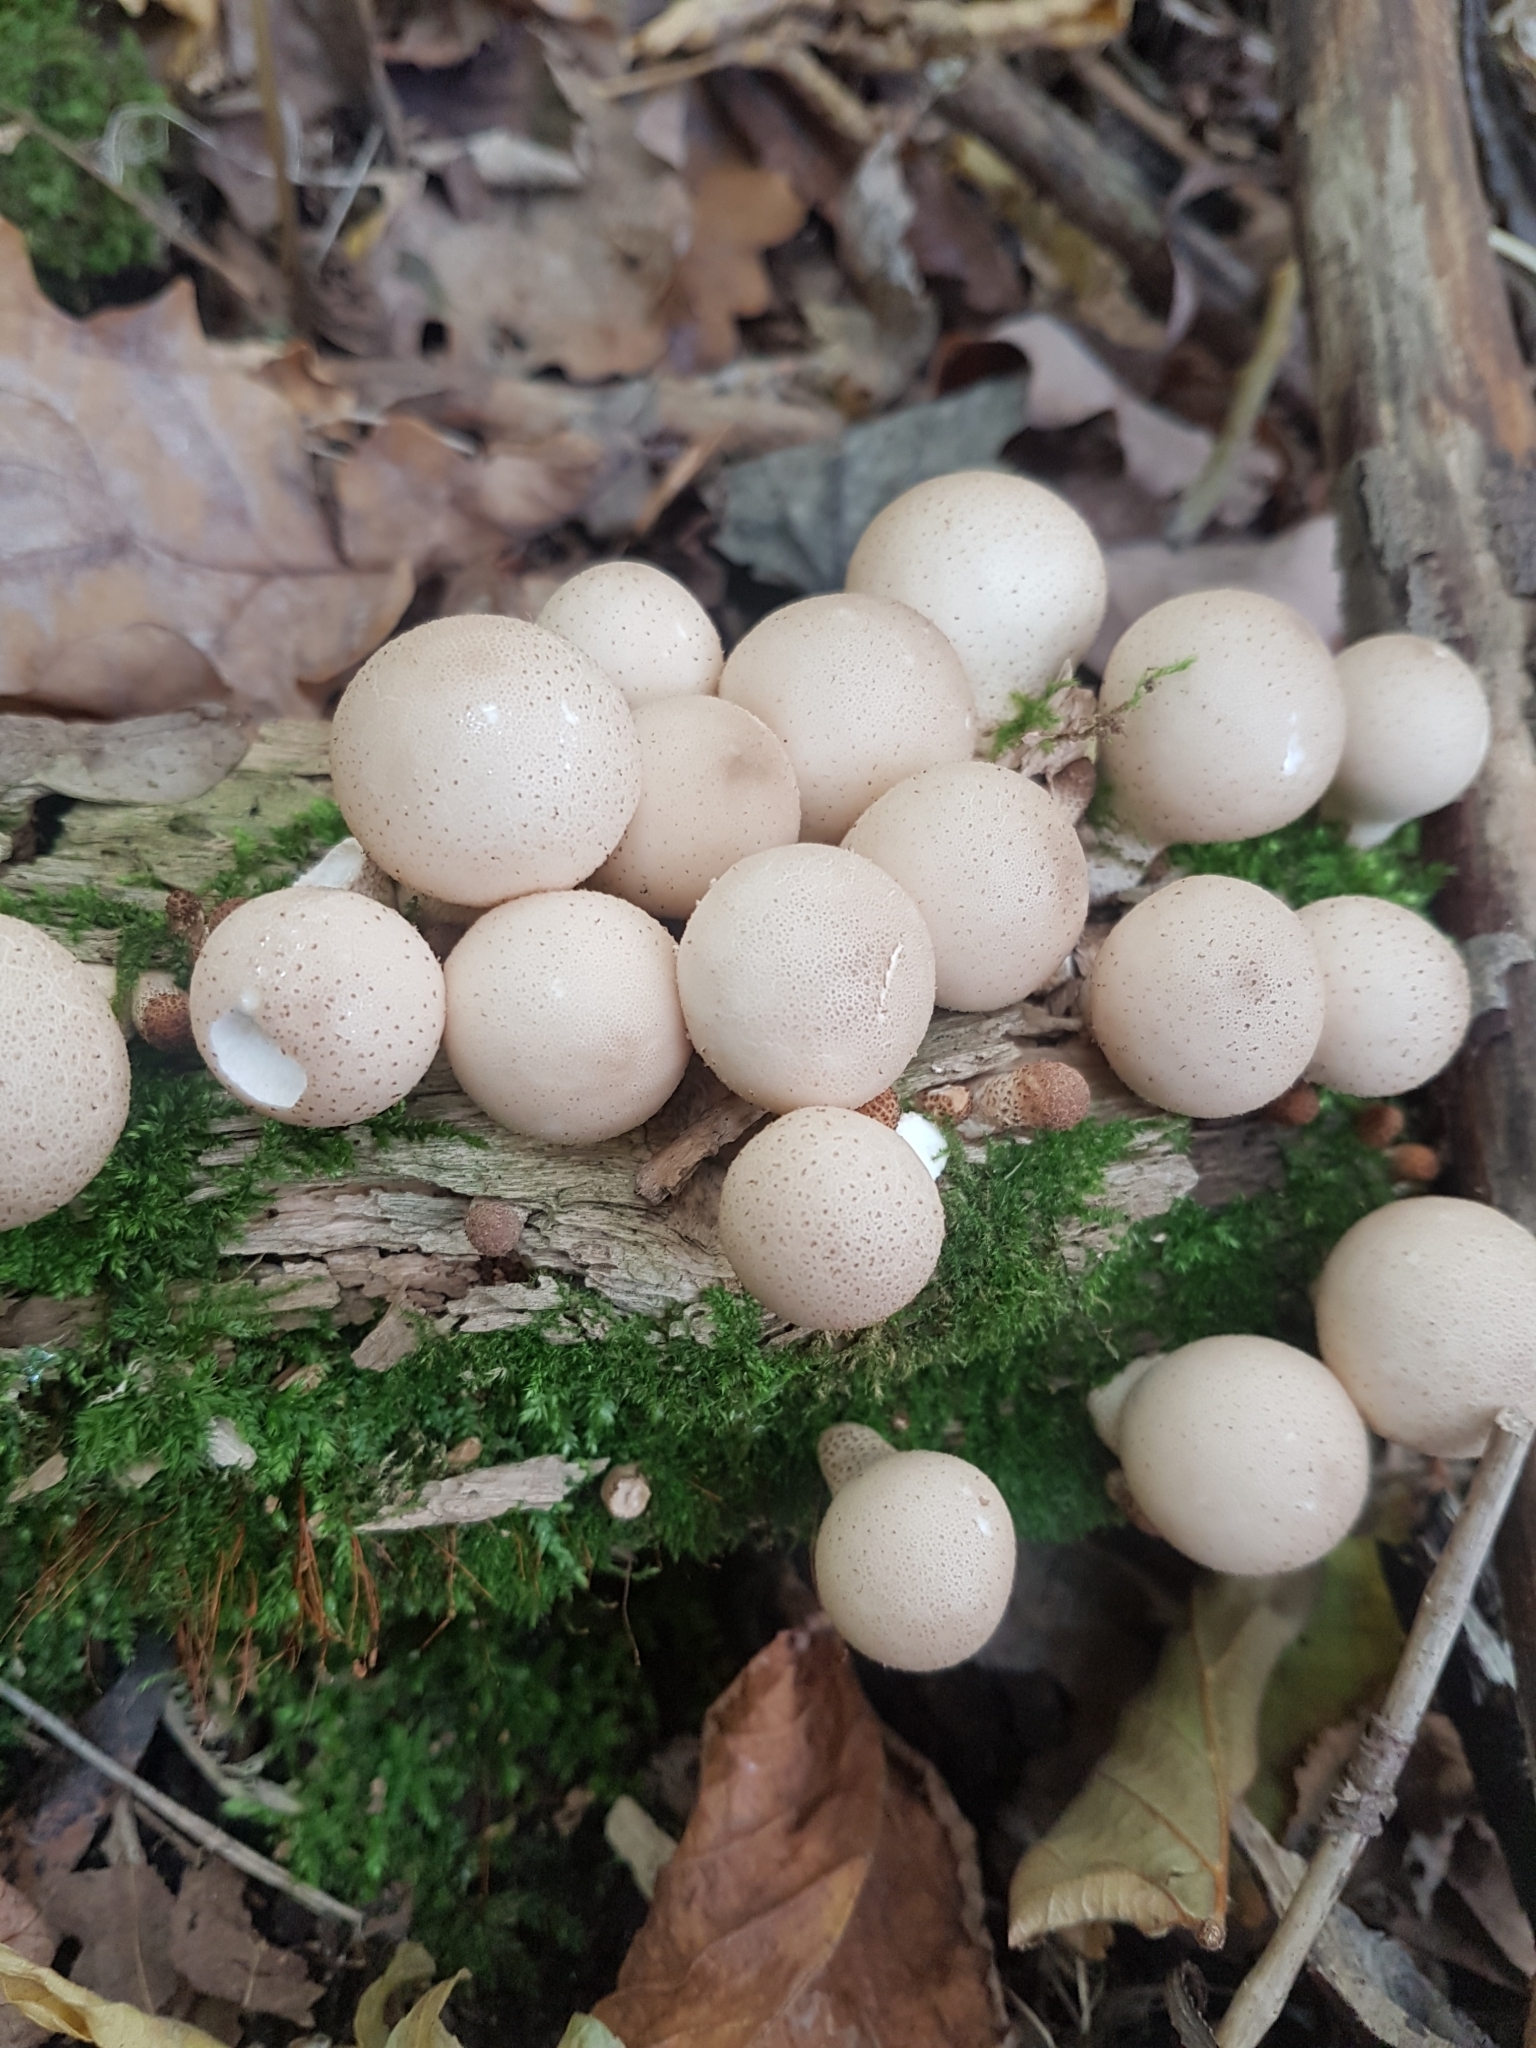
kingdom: Fungi
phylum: Basidiomycota
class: Agaricomycetes
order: Agaricales
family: Lycoperdaceae
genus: Apioperdon
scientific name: Apioperdon pyriforme
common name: Pear-shaped puffball
